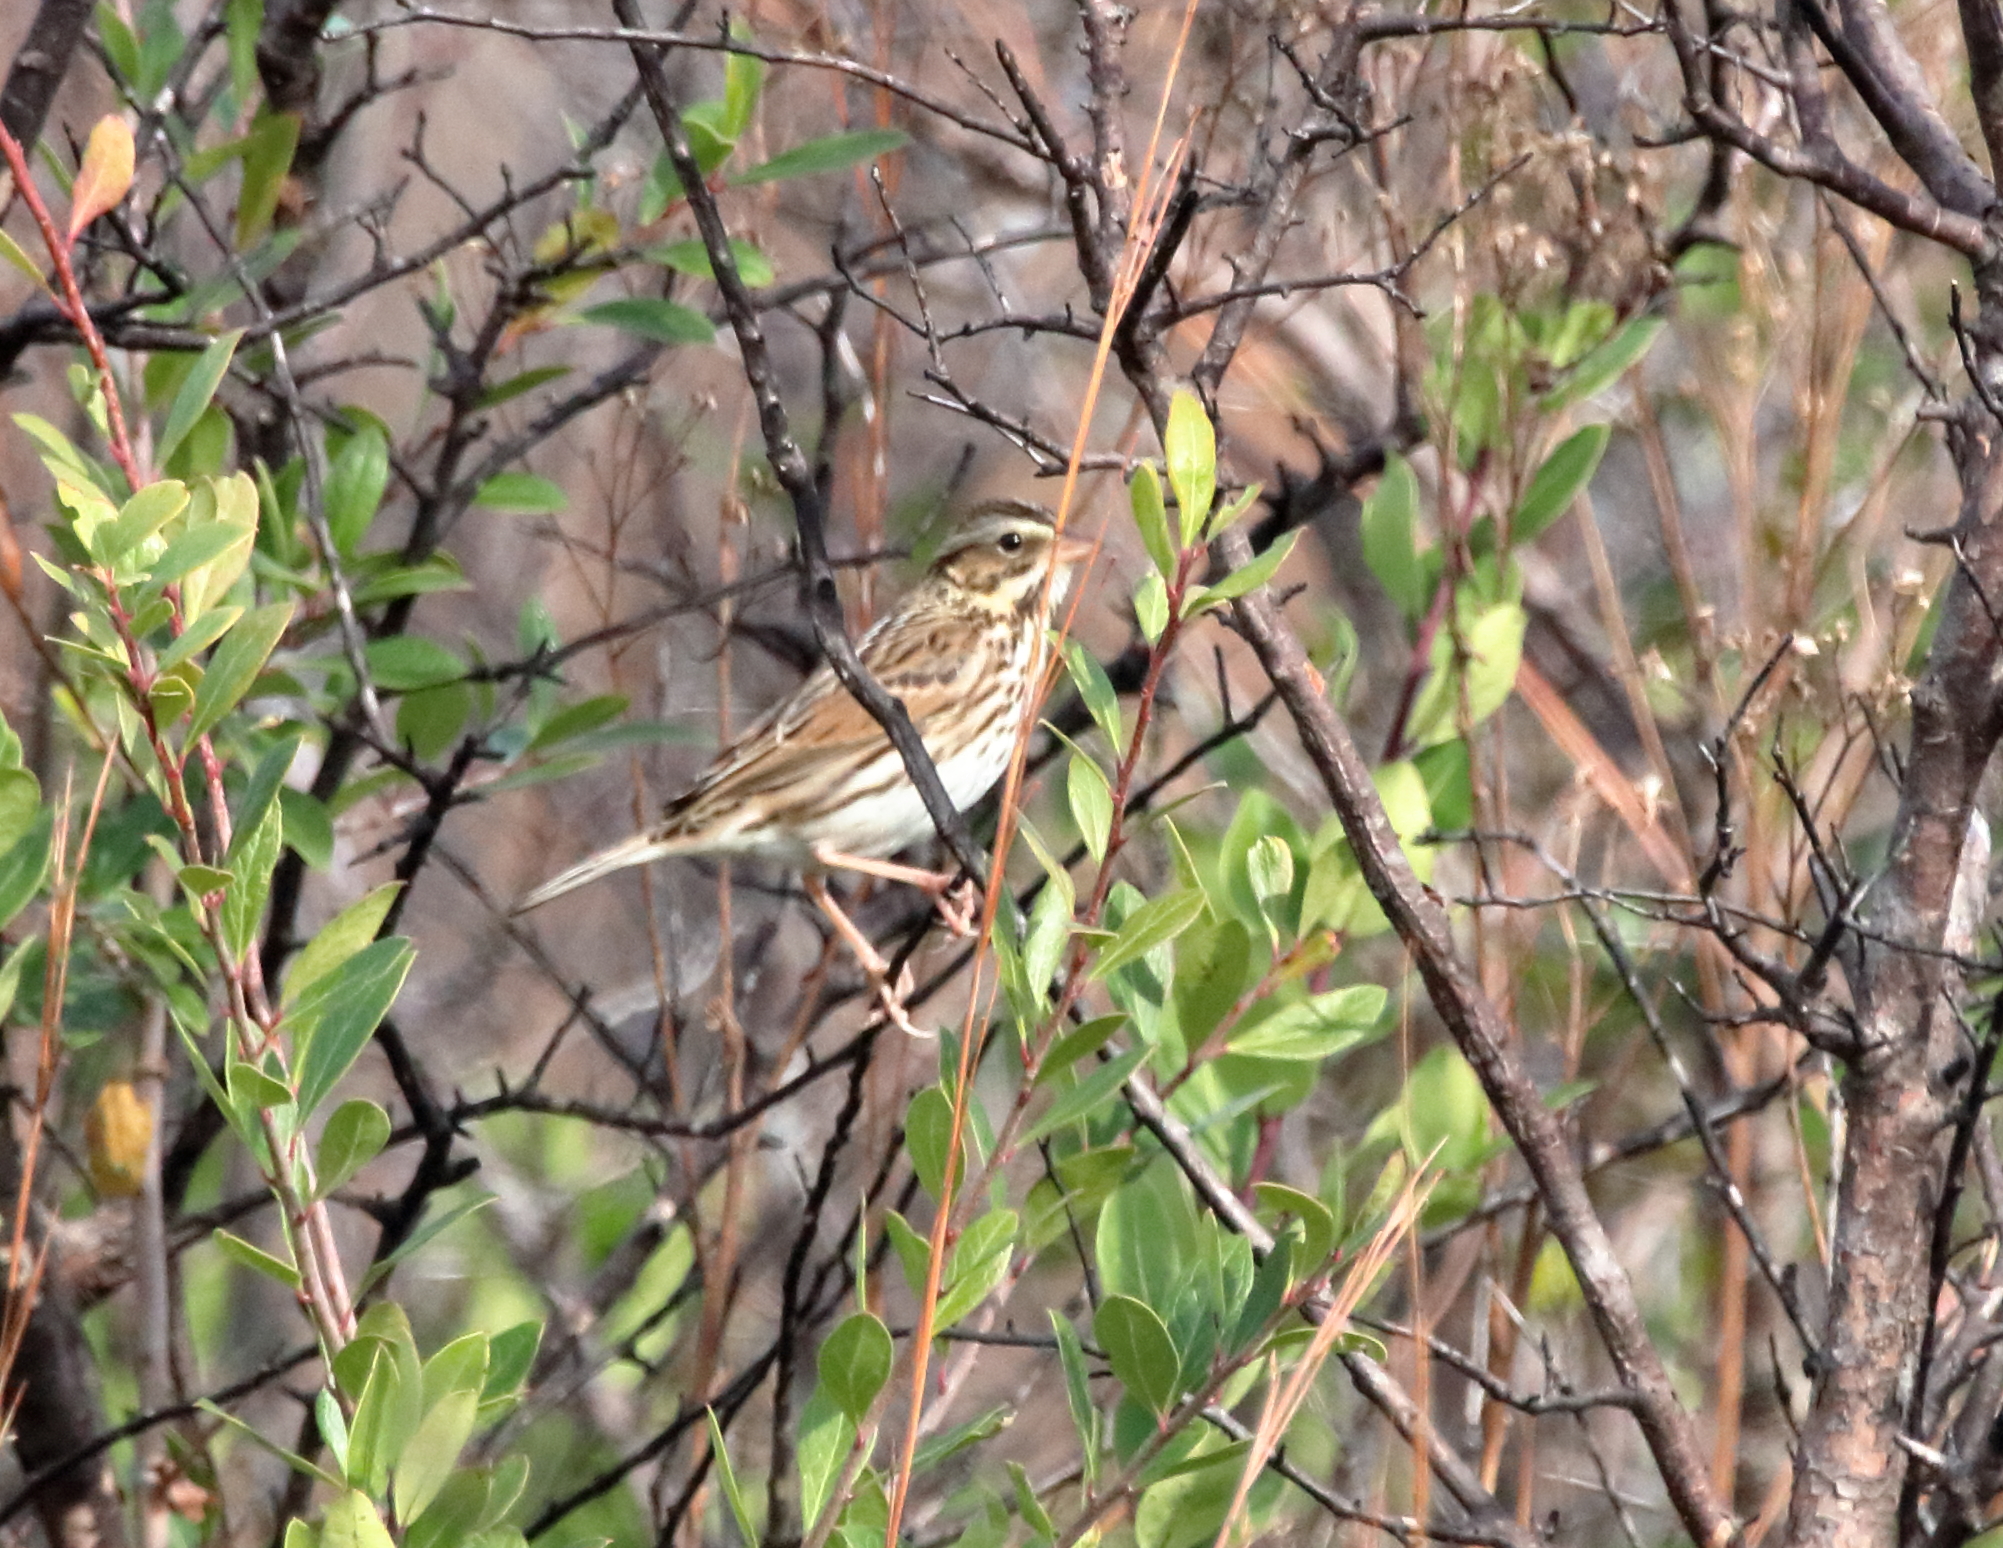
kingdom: Animalia
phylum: Chordata
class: Aves
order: Passeriformes
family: Passerellidae
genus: Passerculus
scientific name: Passerculus sandwichensis
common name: Savannah sparrow
